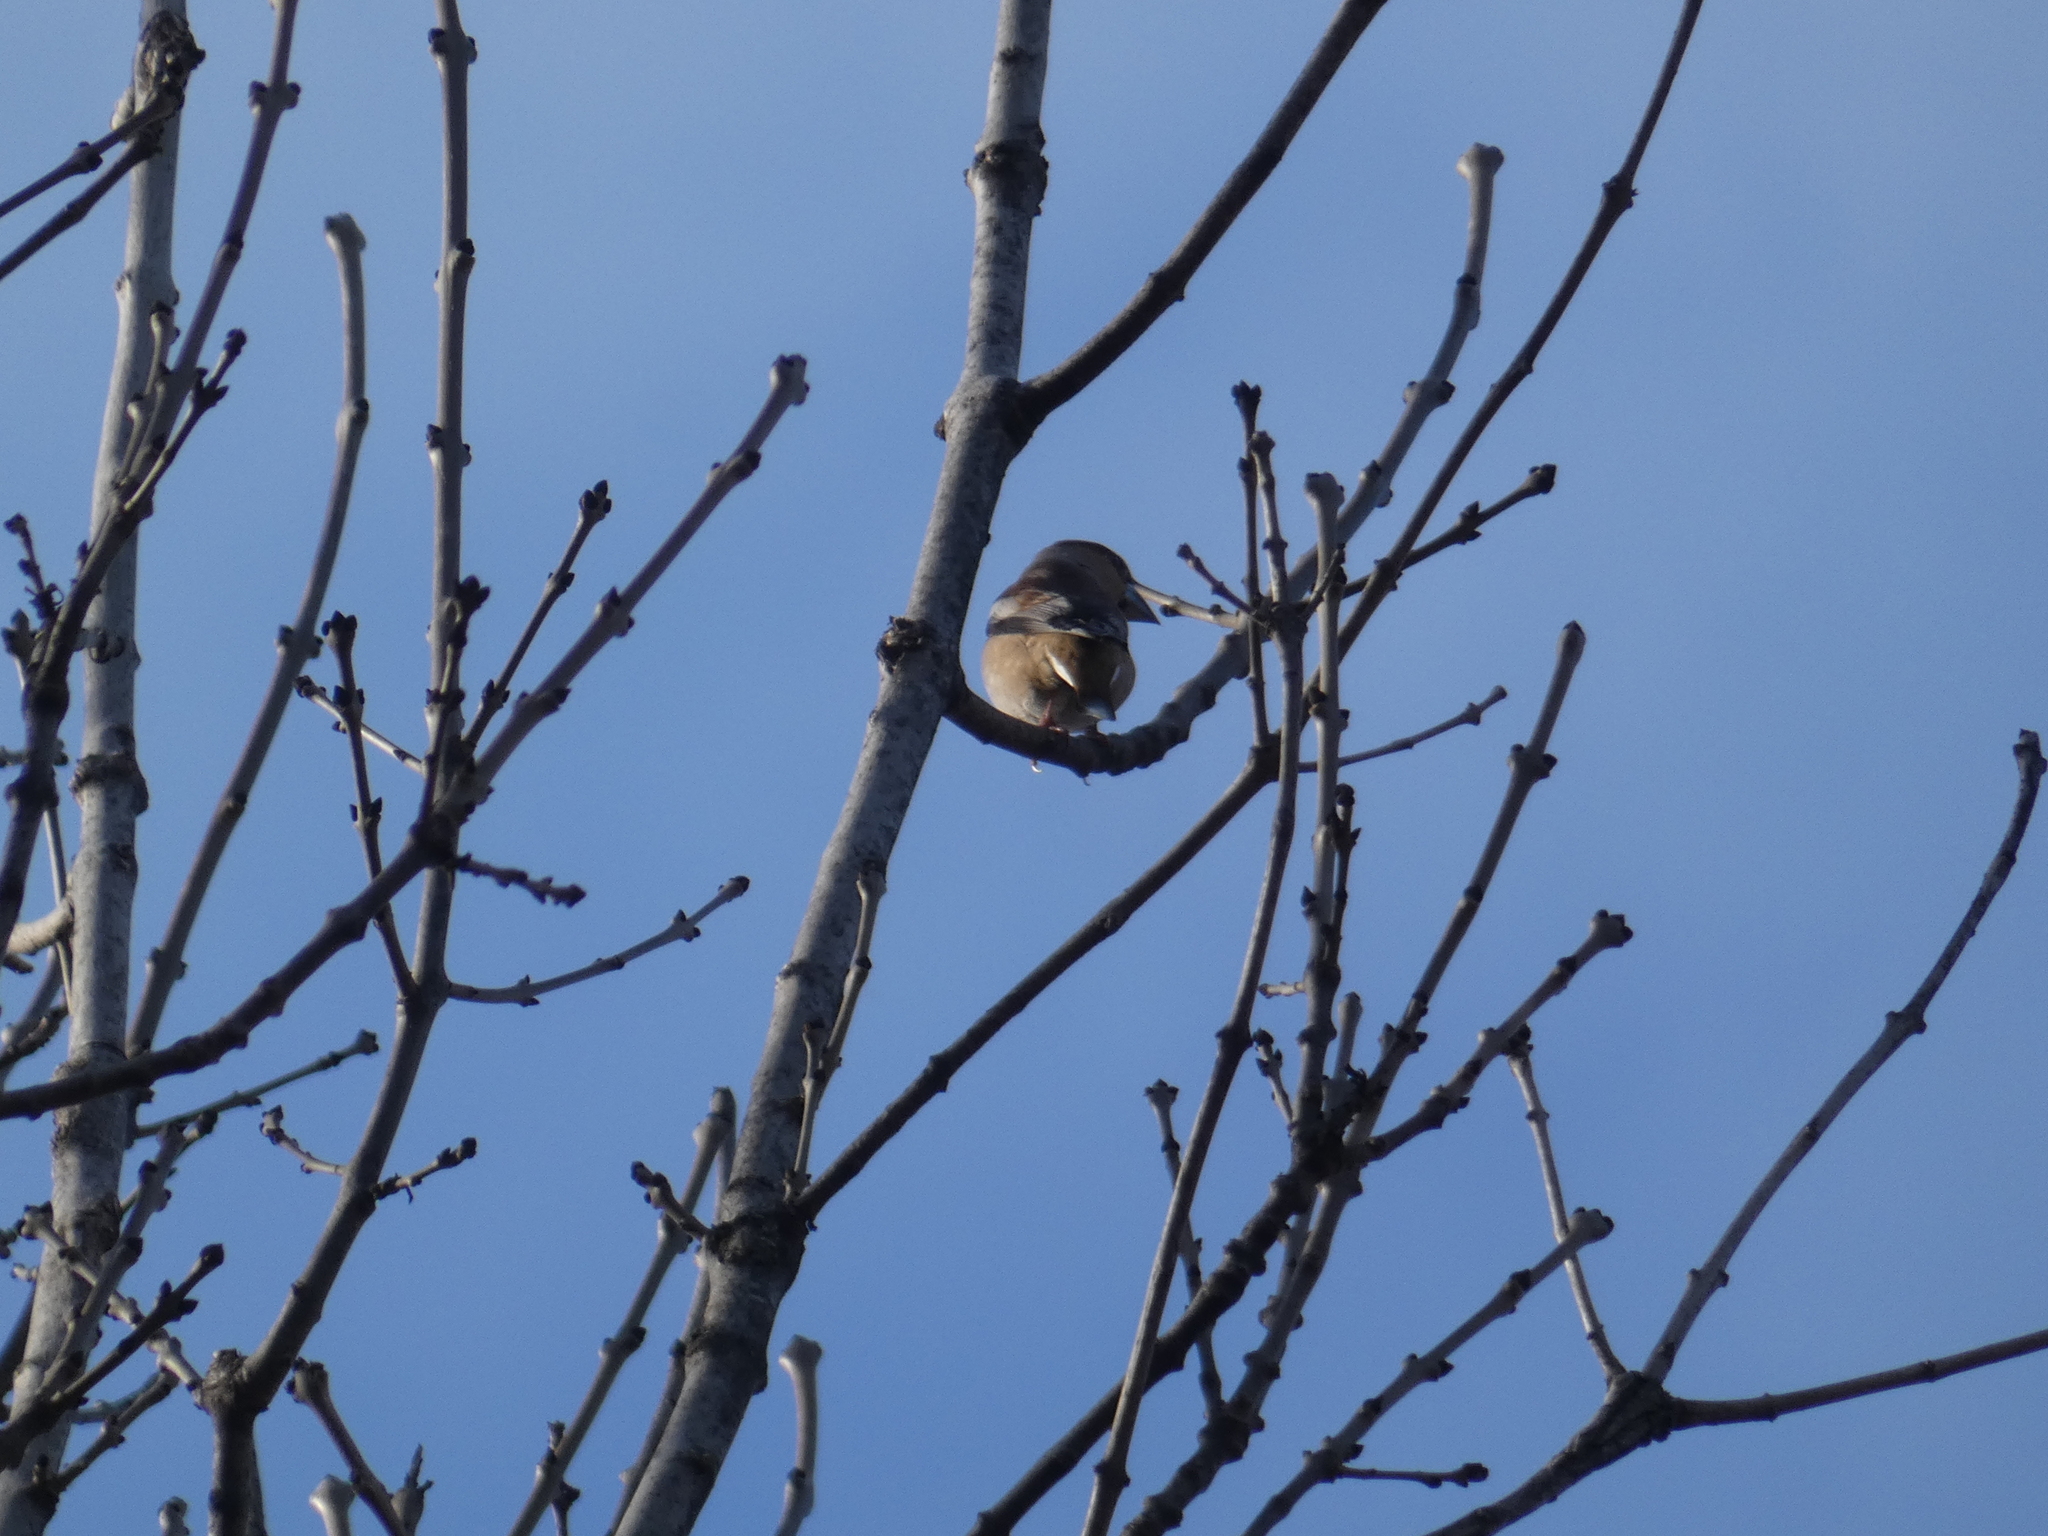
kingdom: Animalia
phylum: Chordata
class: Aves
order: Passeriformes
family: Fringillidae
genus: Fringilla
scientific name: Fringilla coelebs
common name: Common chaffinch
